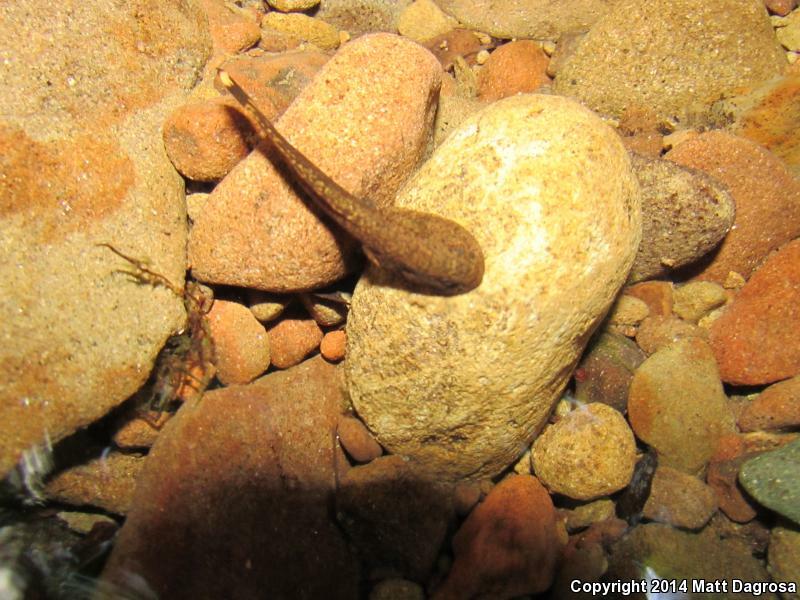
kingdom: Animalia
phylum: Chordata
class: Amphibia
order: Anura
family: Ascaphidae
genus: Ascaphus
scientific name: Ascaphus truei
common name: Tailed frog
